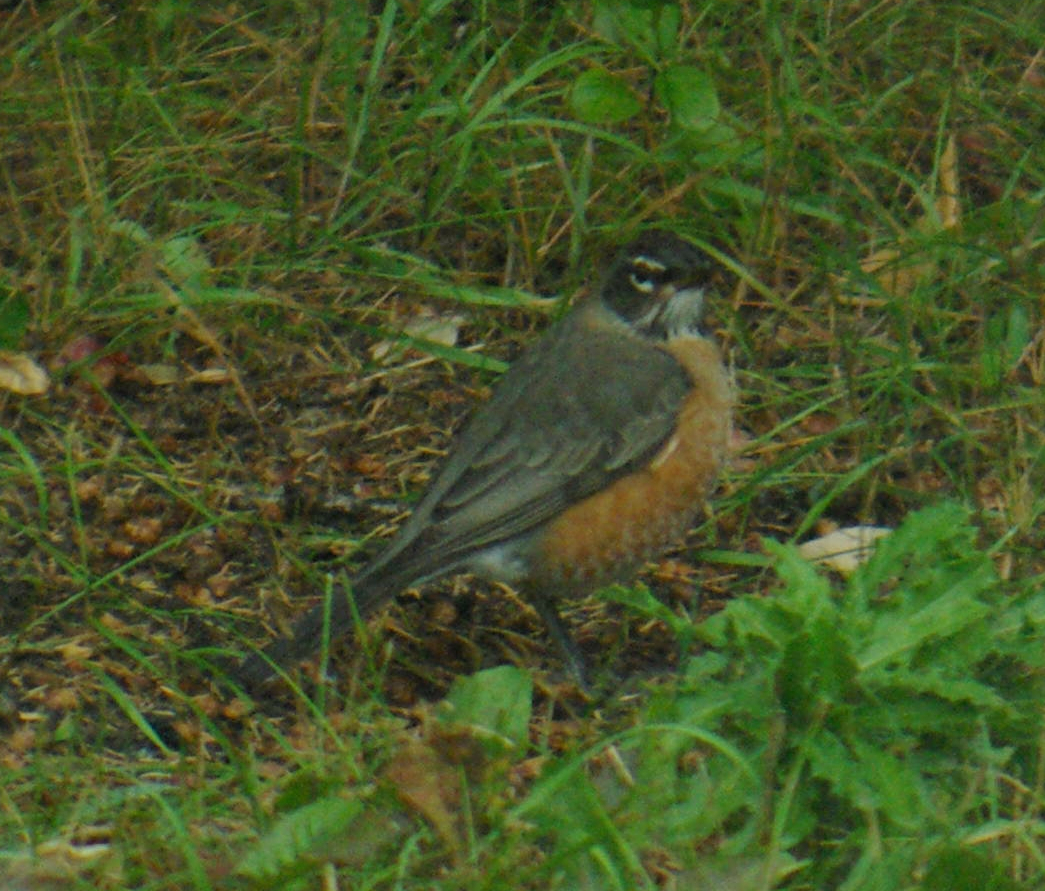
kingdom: Animalia
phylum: Chordata
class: Aves
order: Passeriformes
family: Turdidae
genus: Turdus
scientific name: Turdus migratorius
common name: American robin
